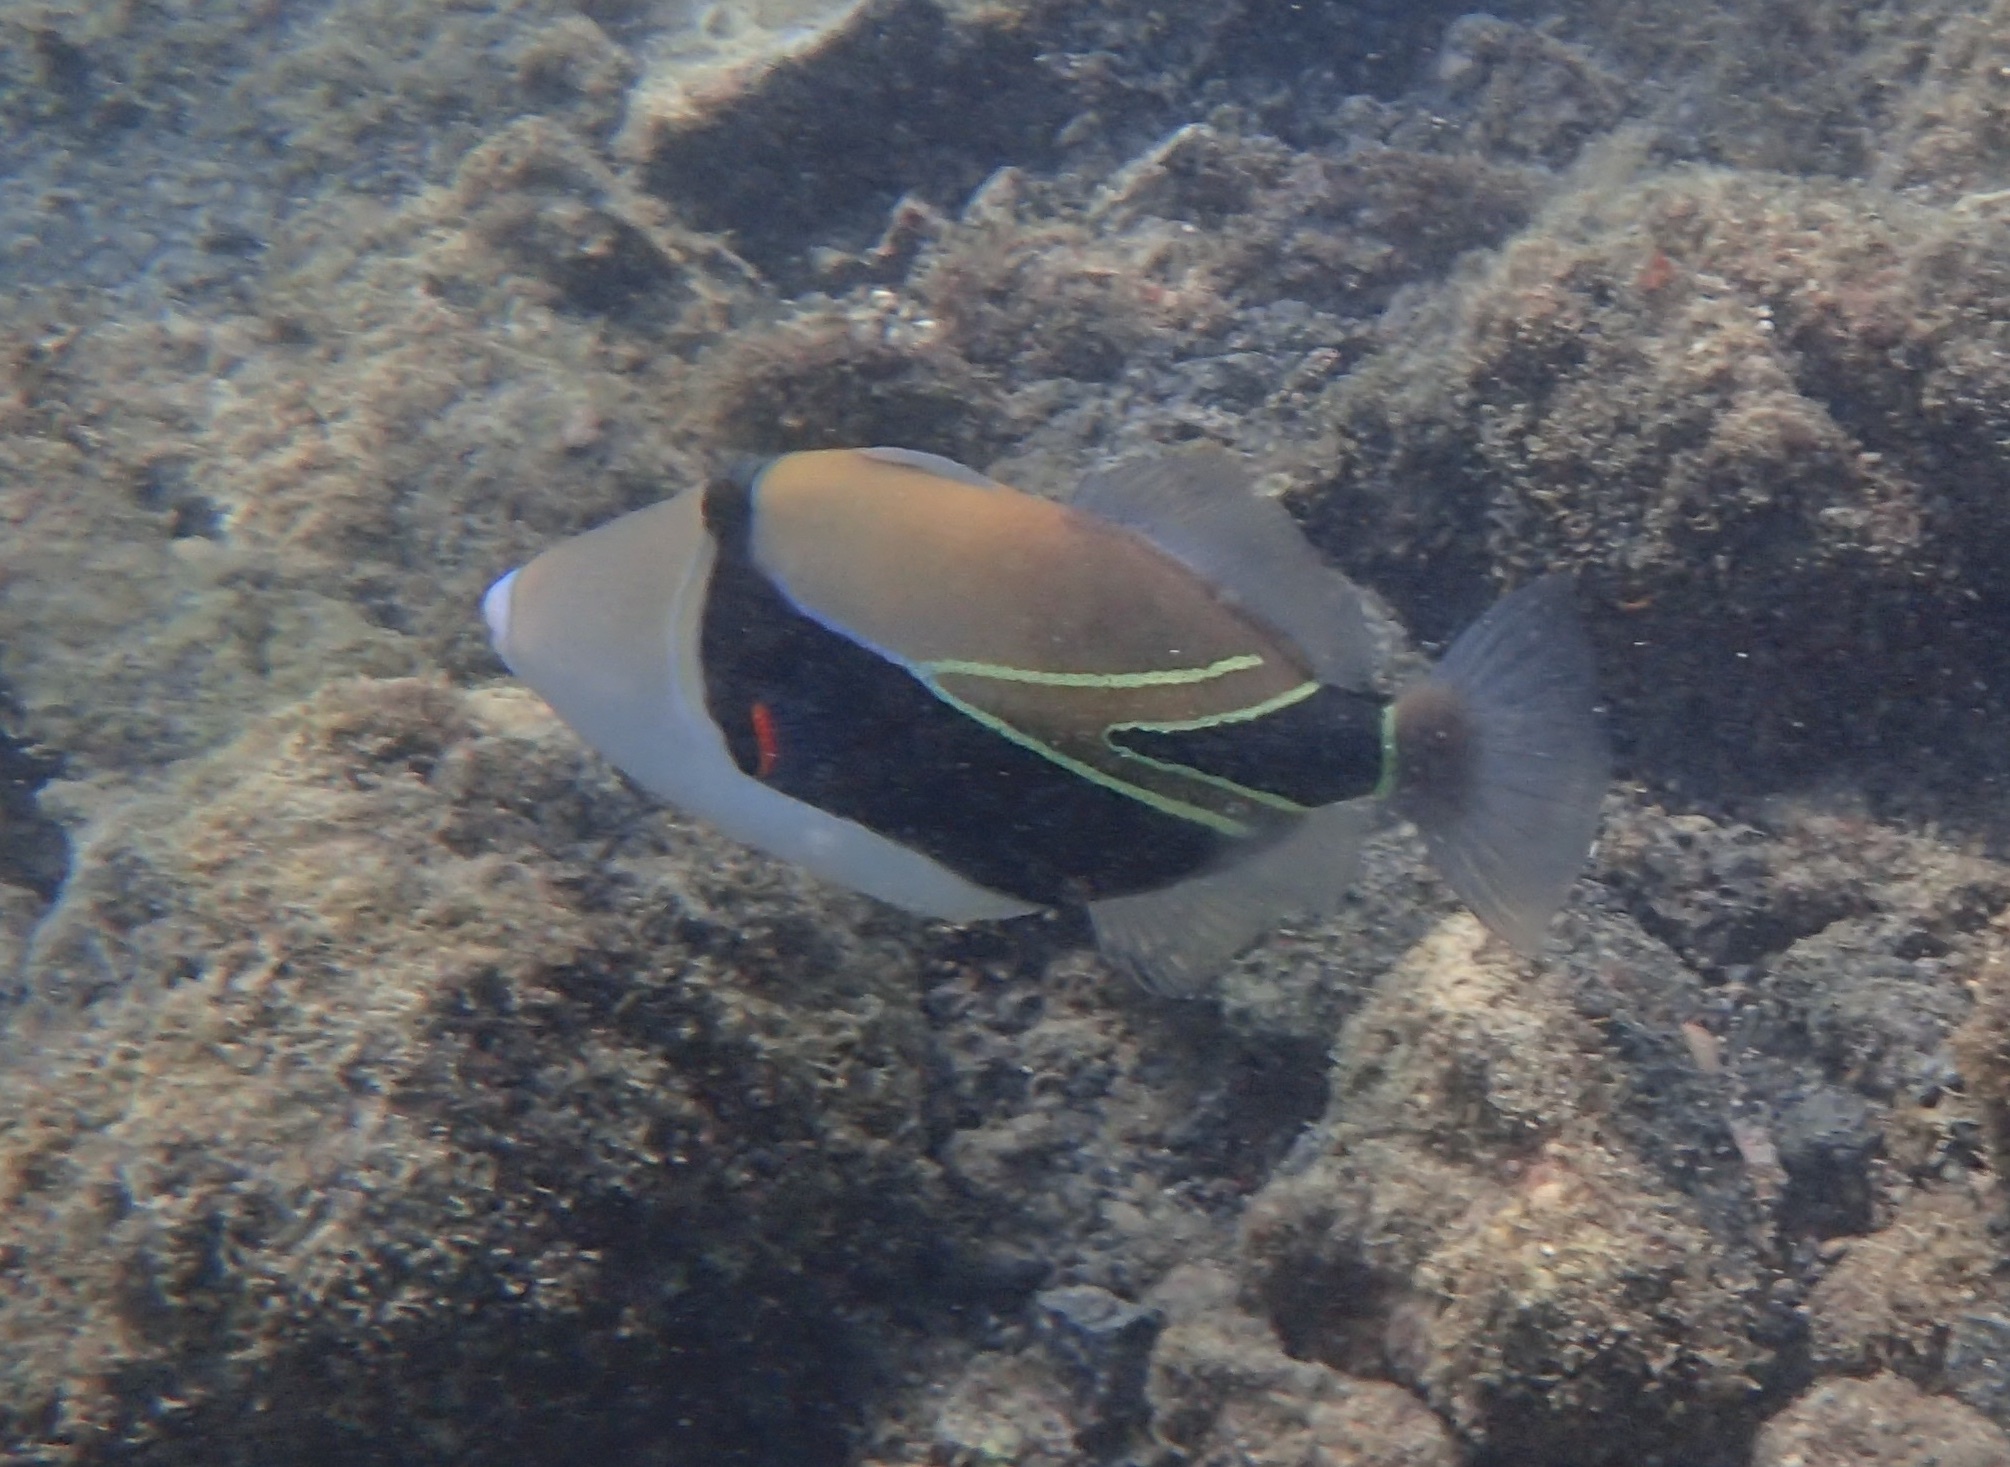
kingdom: Animalia
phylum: Chordata
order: Tetraodontiformes
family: Balistidae
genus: Rhinecanthus
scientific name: Rhinecanthus rectangulus
